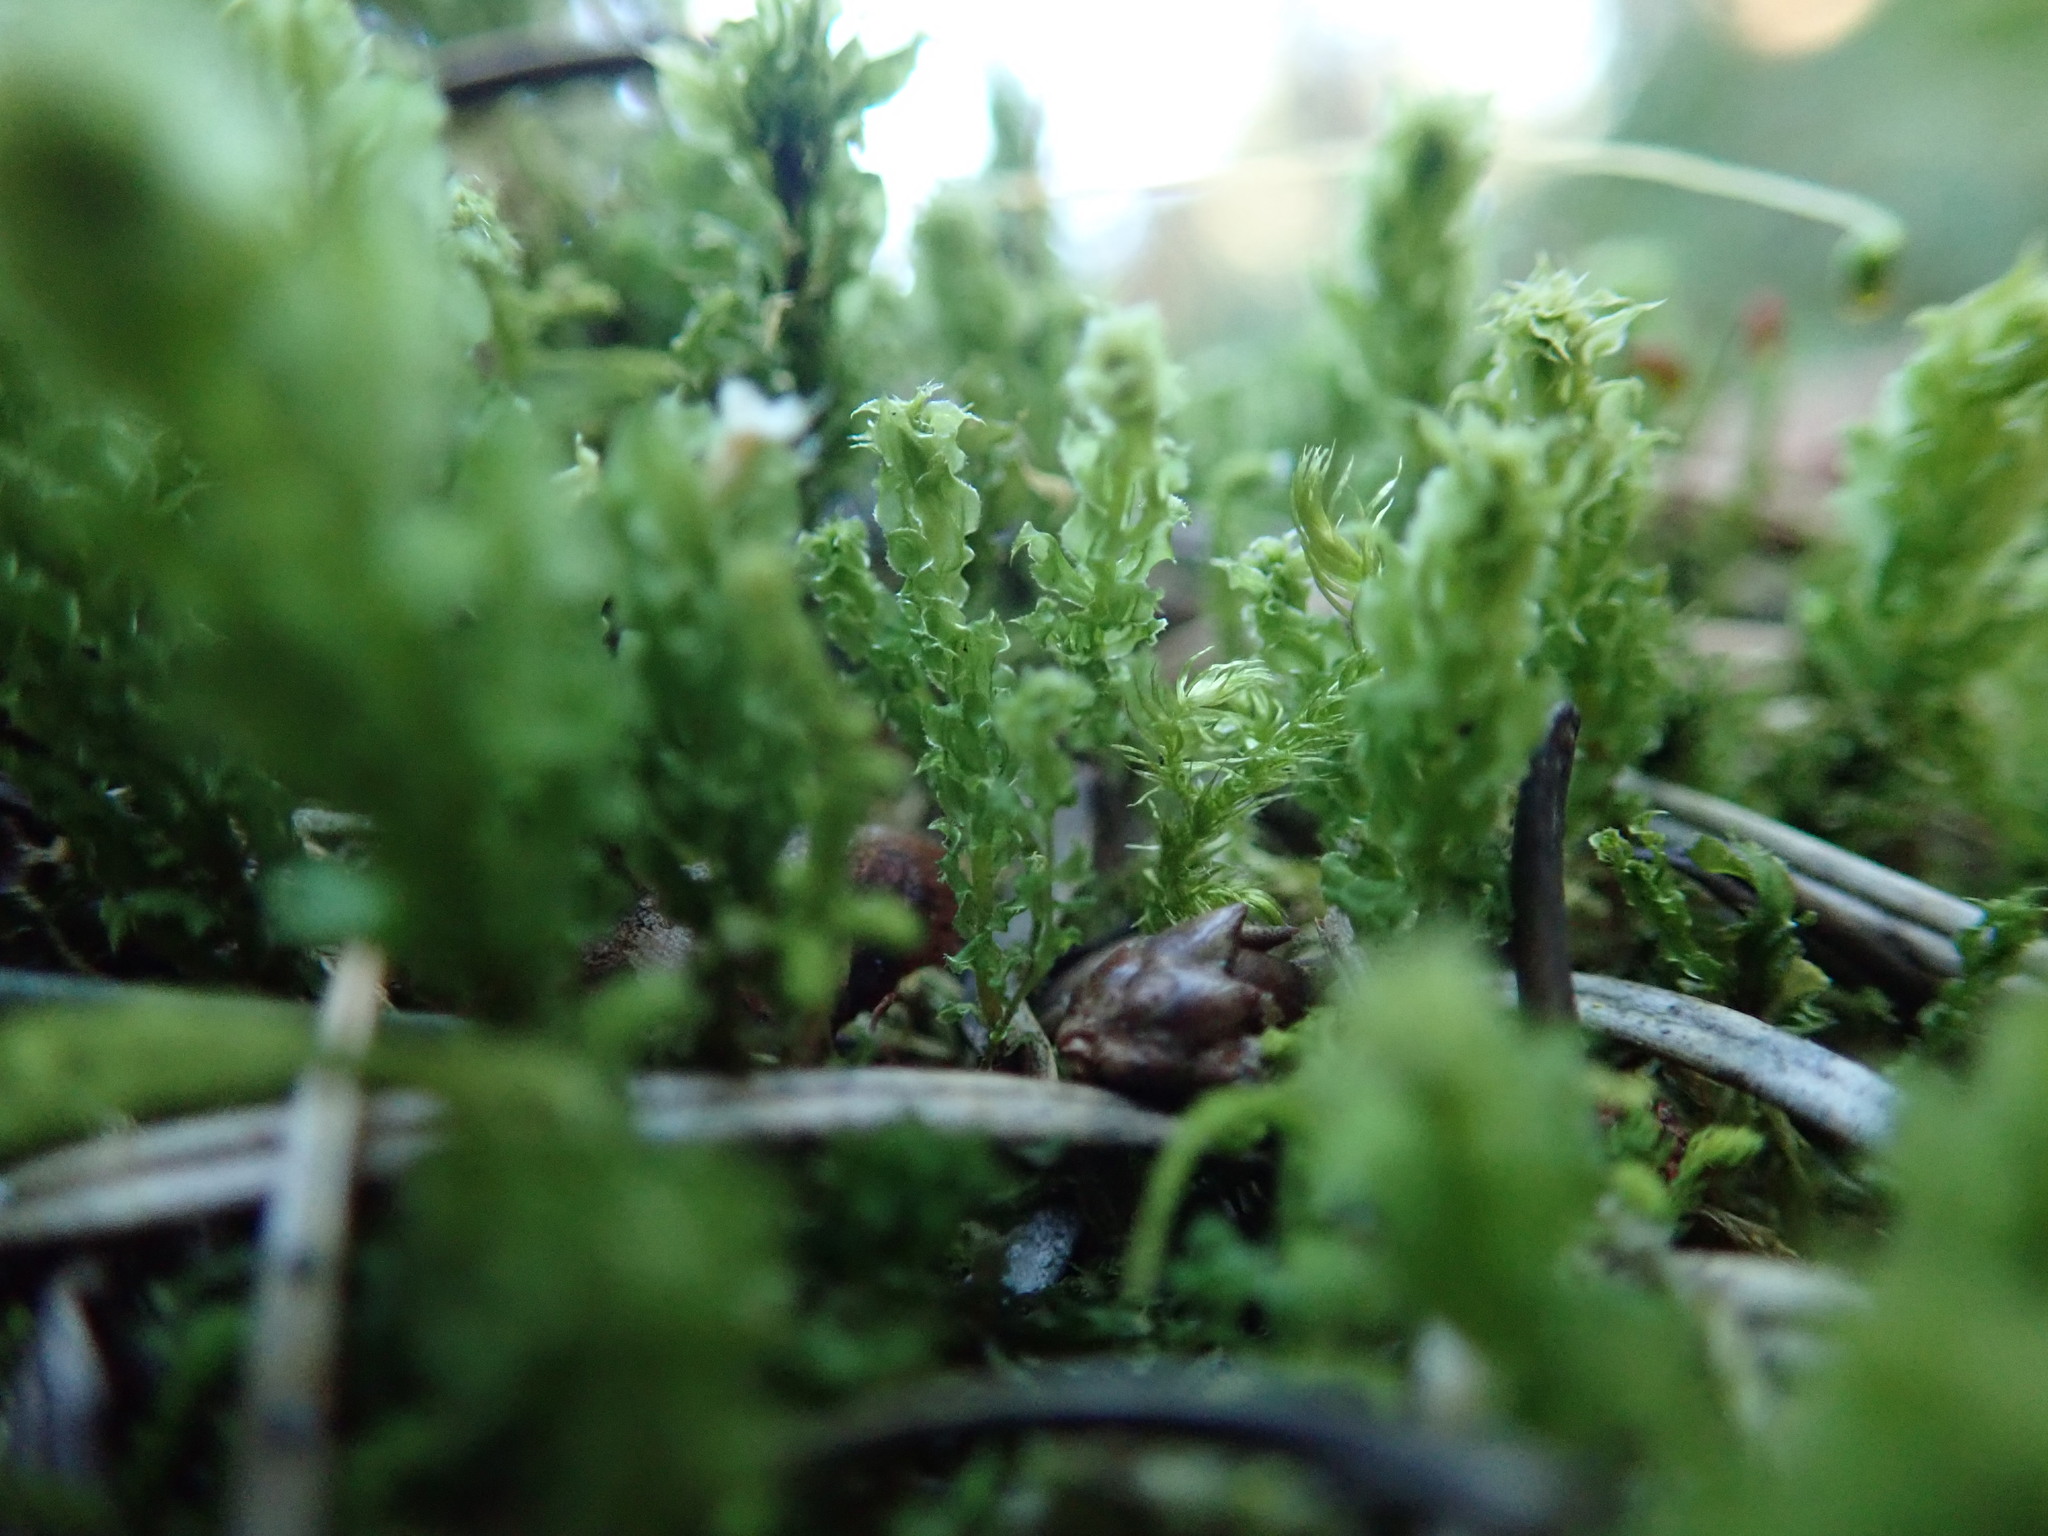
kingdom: Plantae
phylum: Bryophyta
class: Bryopsida
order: Bryales
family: Mniaceae
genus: Plagiomnium
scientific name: Plagiomnium venustum
